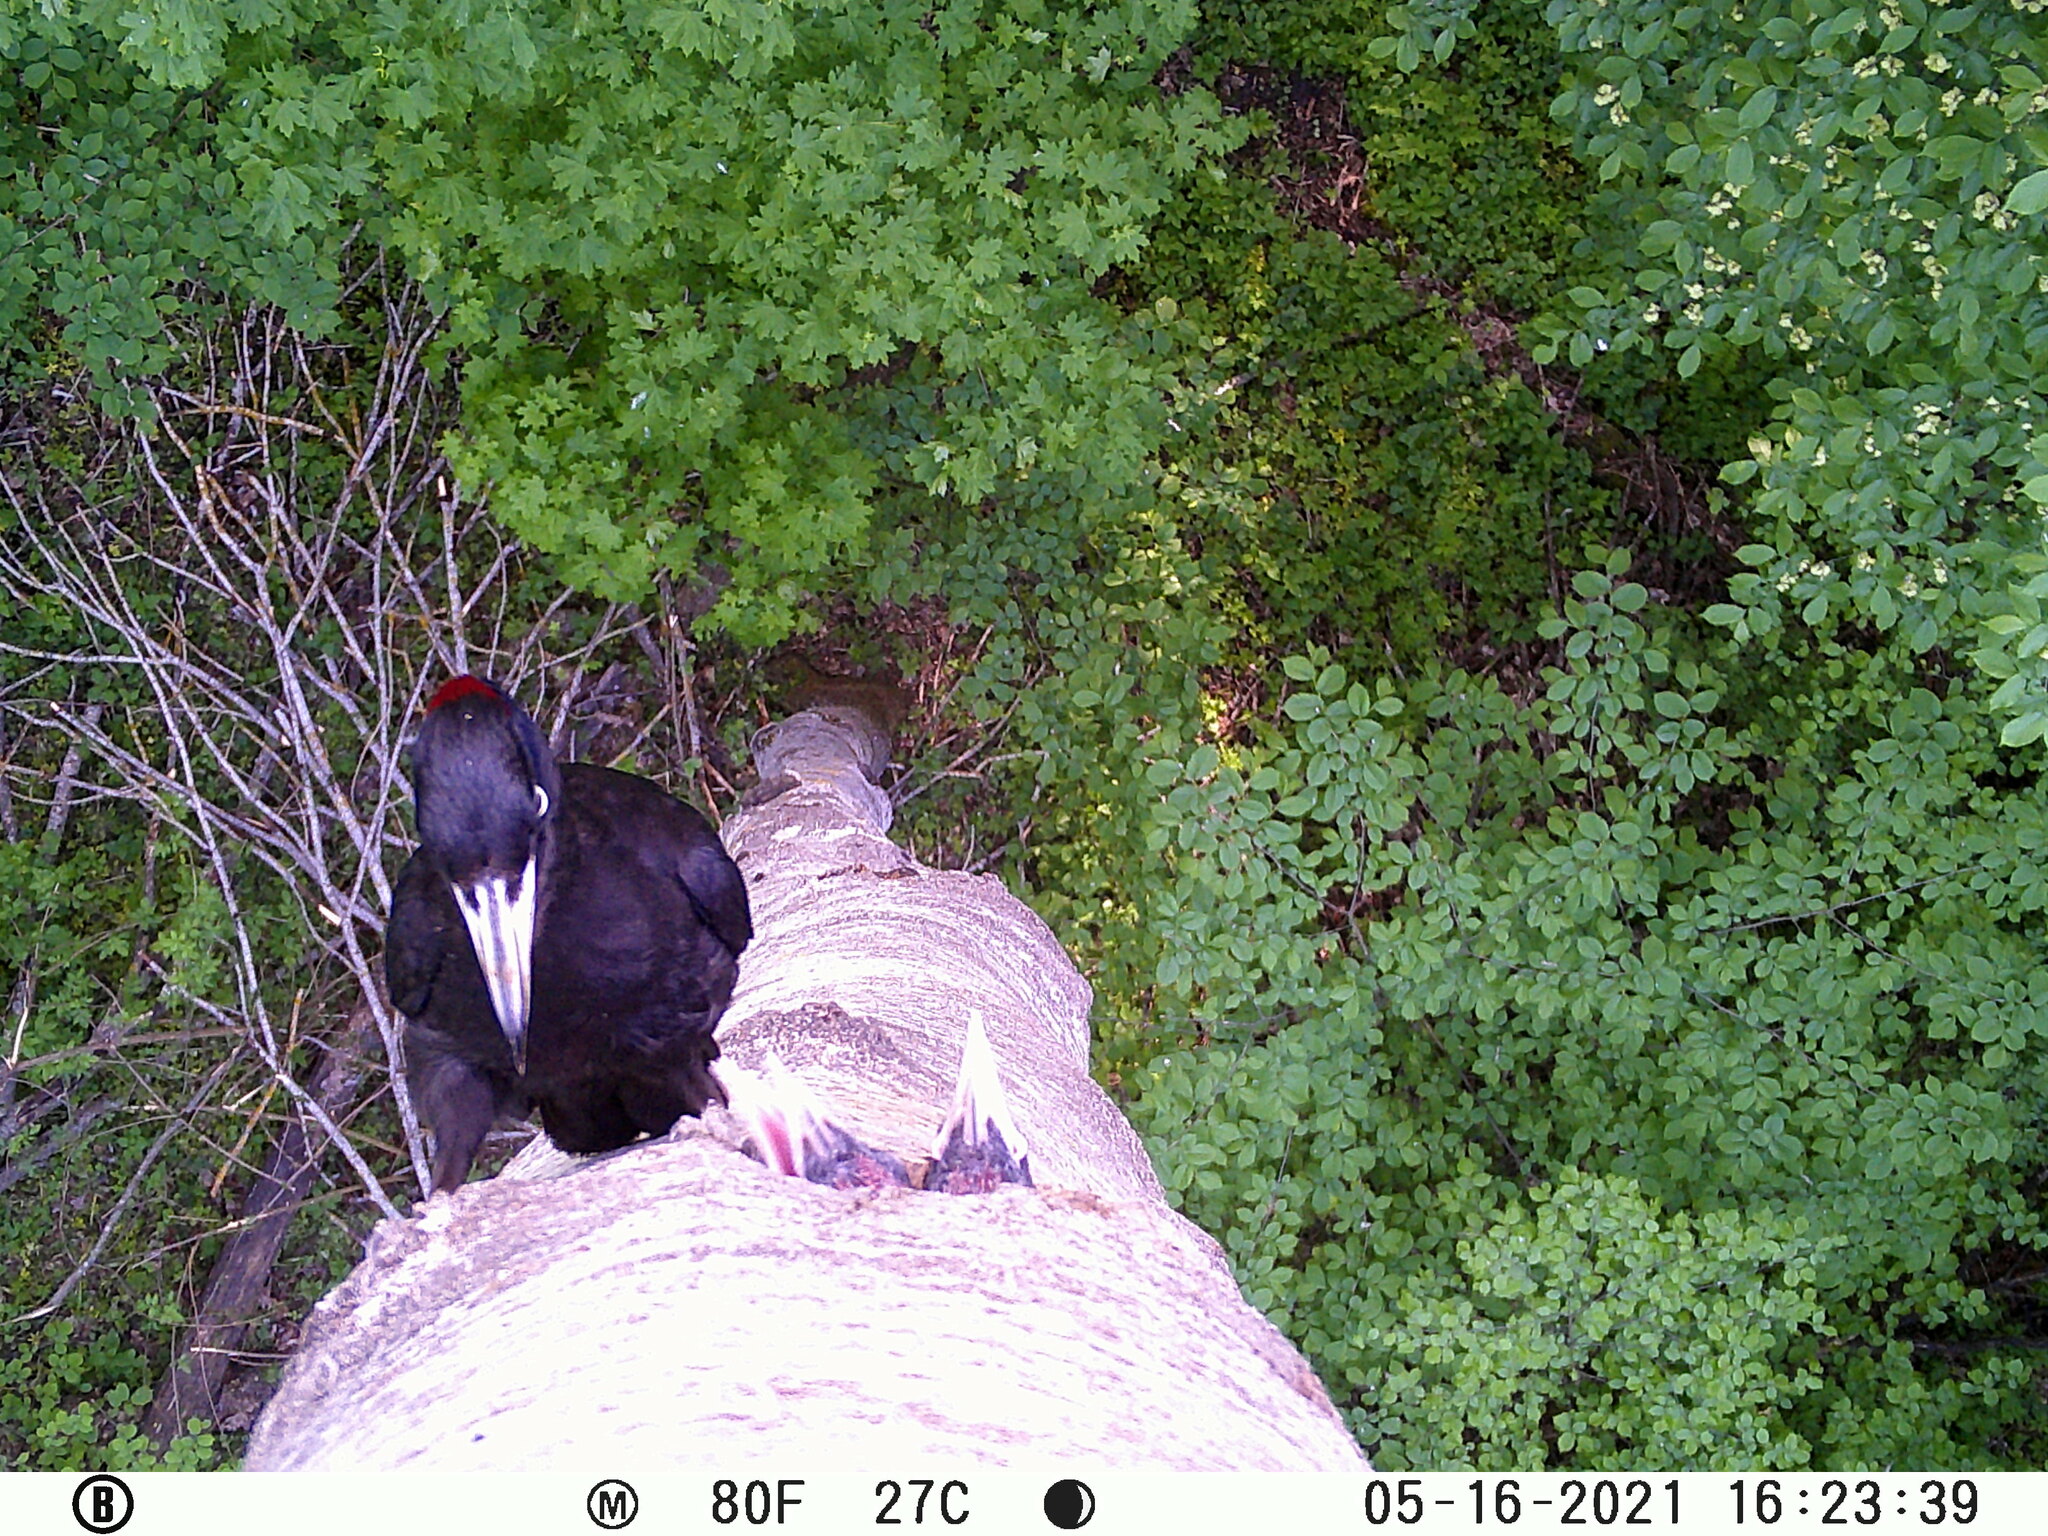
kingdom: Animalia
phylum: Chordata
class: Aves
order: Piciformes
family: Picidae
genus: Dryocopus
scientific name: Dryocopus martius
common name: Black woodpecker
